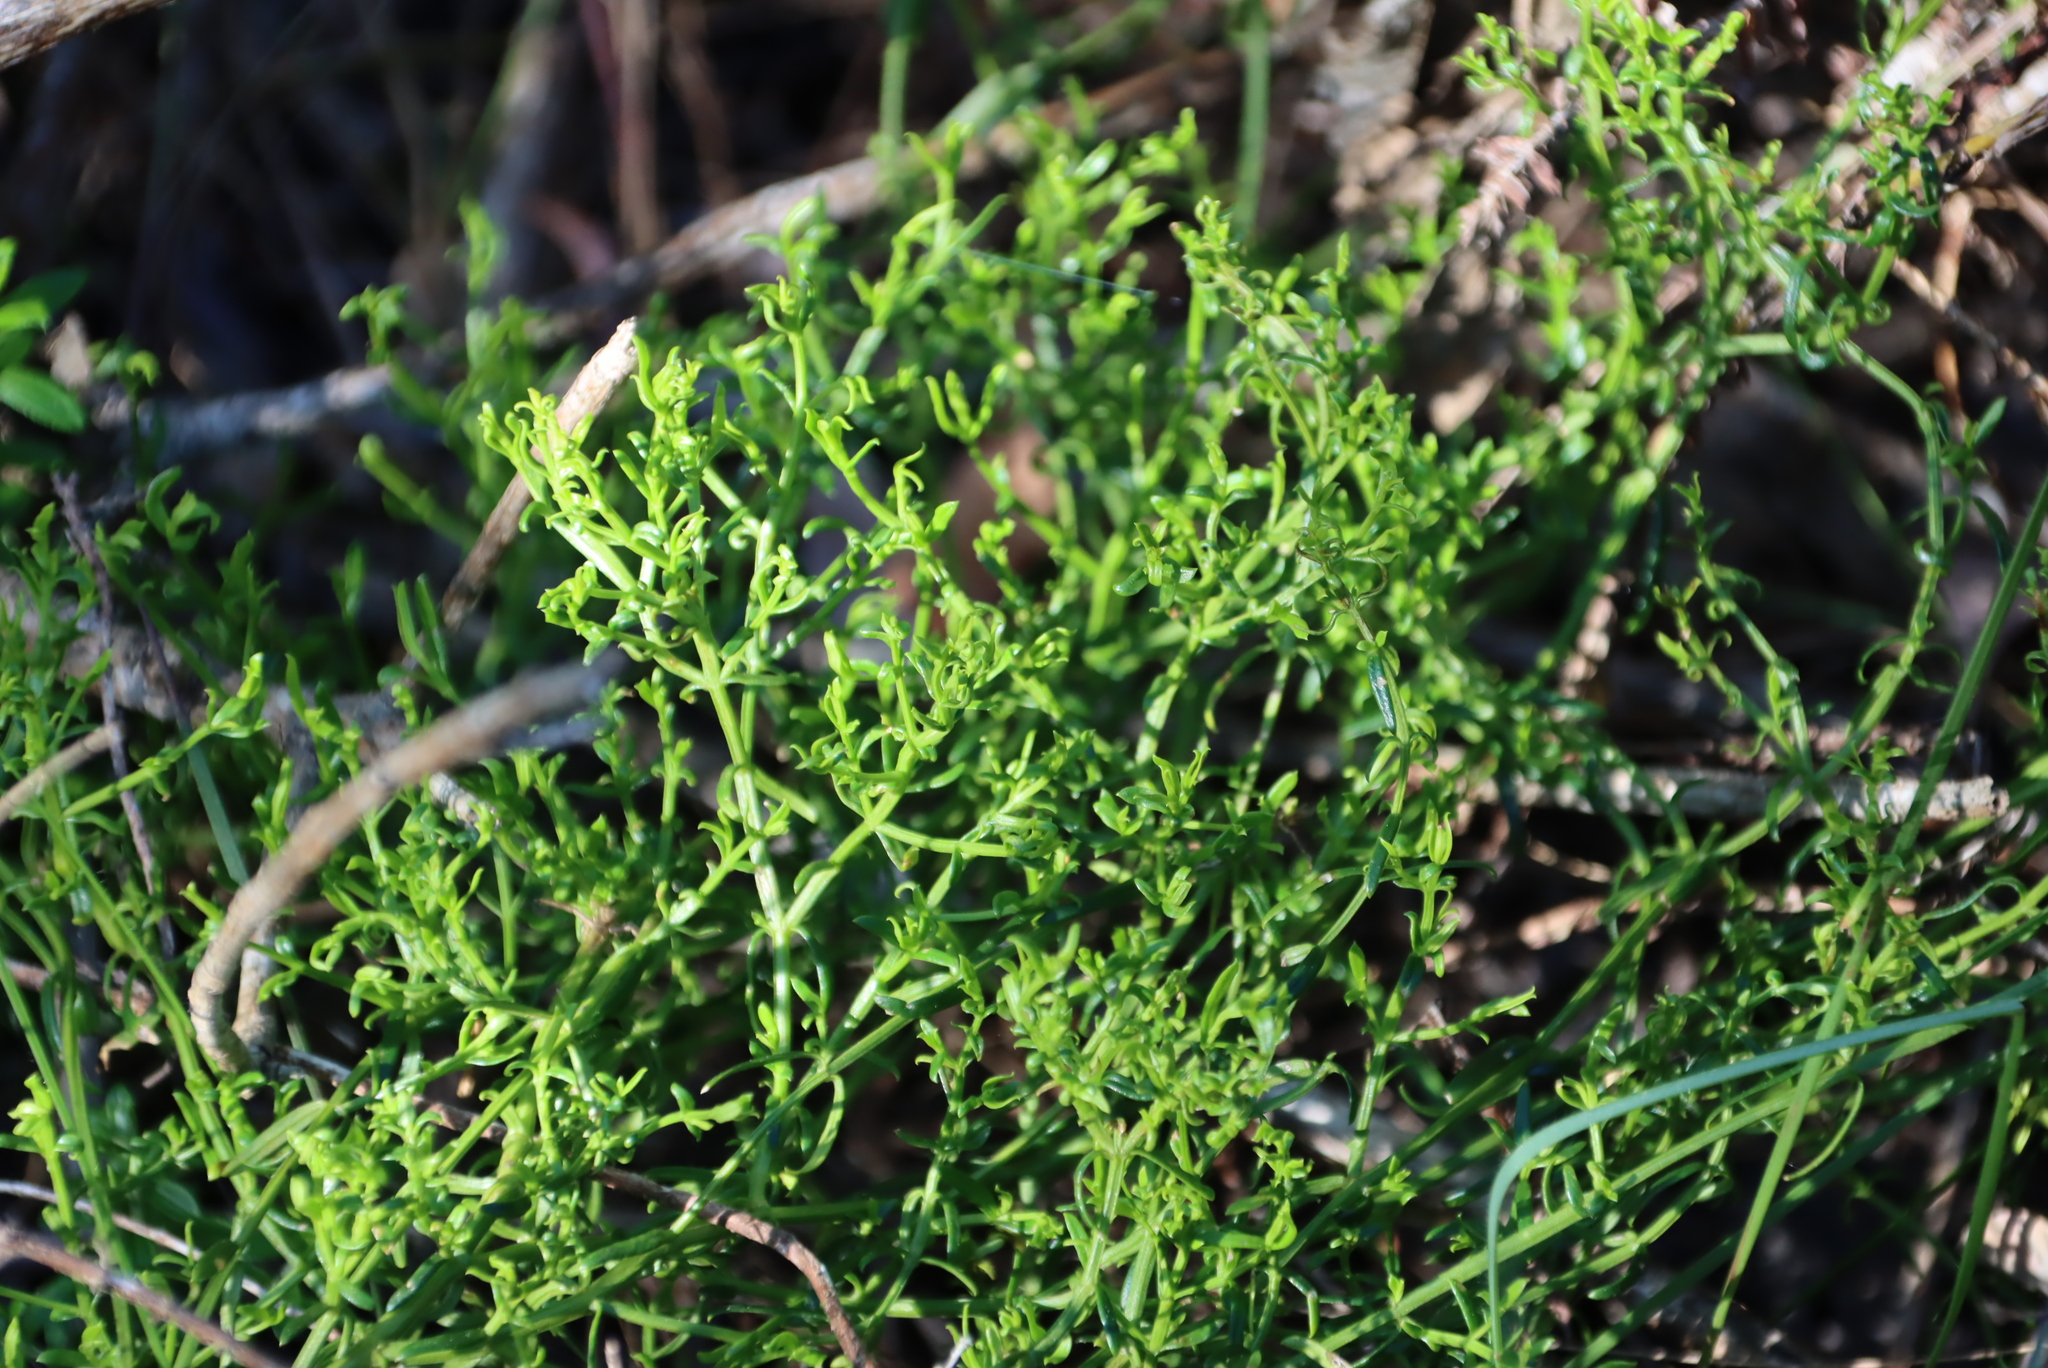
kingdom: Plantae
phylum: Tracheophyta
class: Magnoliopsida
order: Gentianales
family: Gentianaceae
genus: Chironia
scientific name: Chironia baccifera
